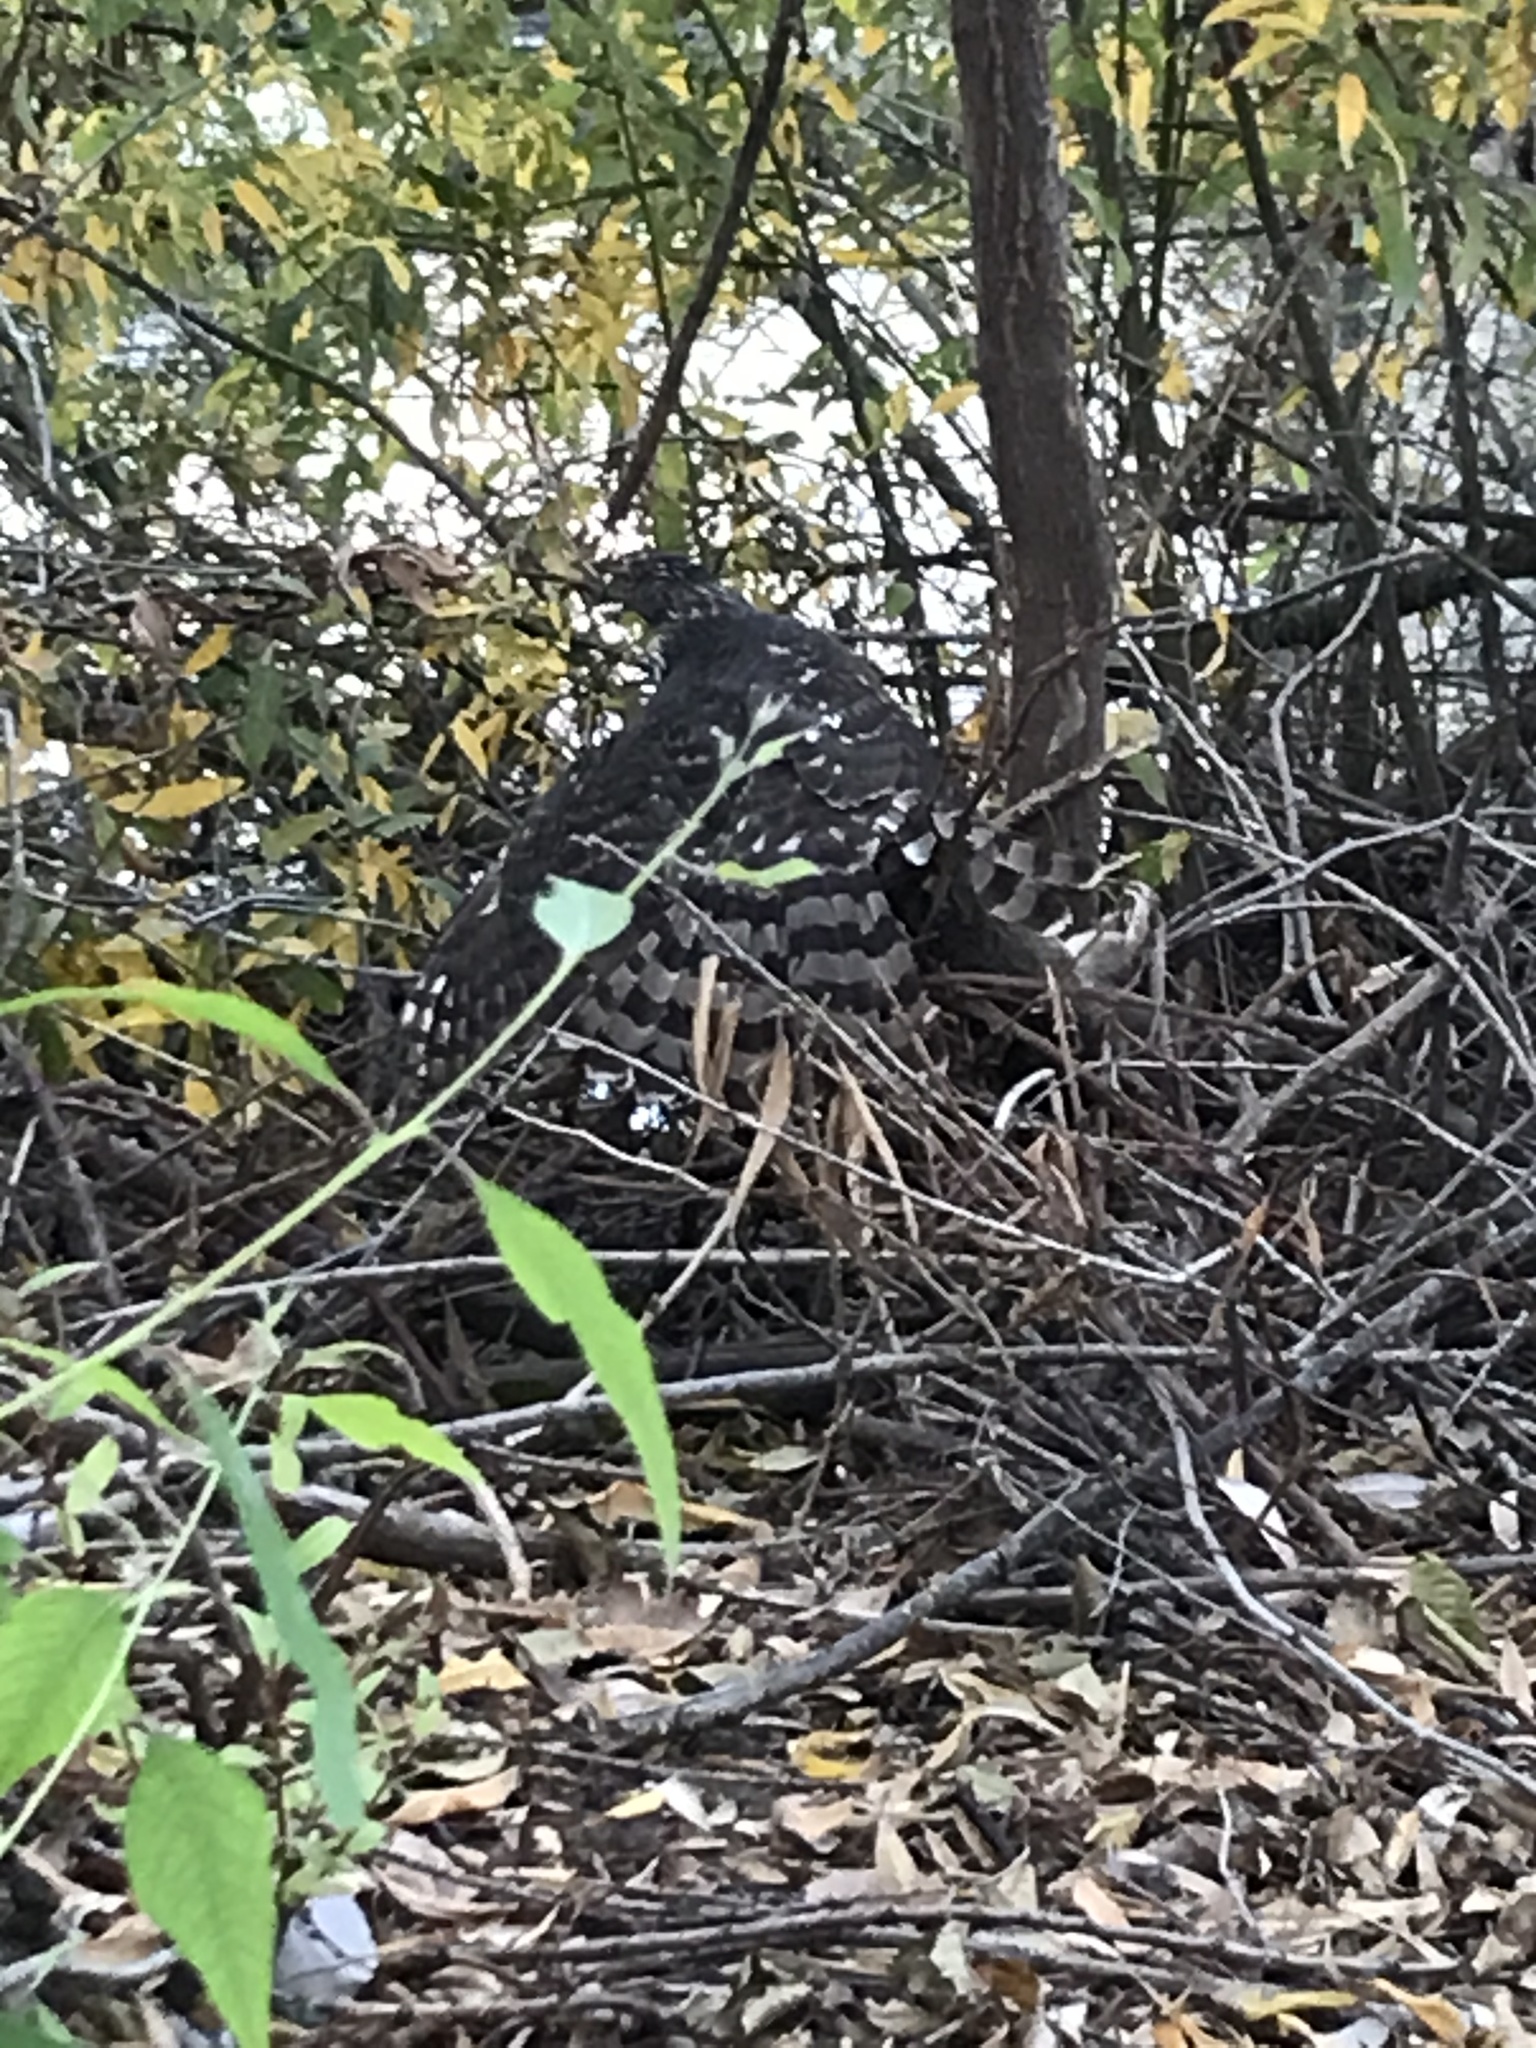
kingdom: Animalia
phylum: Chordata
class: Aves
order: Accipitriformes
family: Accipitridae
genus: Accipiter
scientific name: Accipiter cooperii
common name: Cooper's hawk
